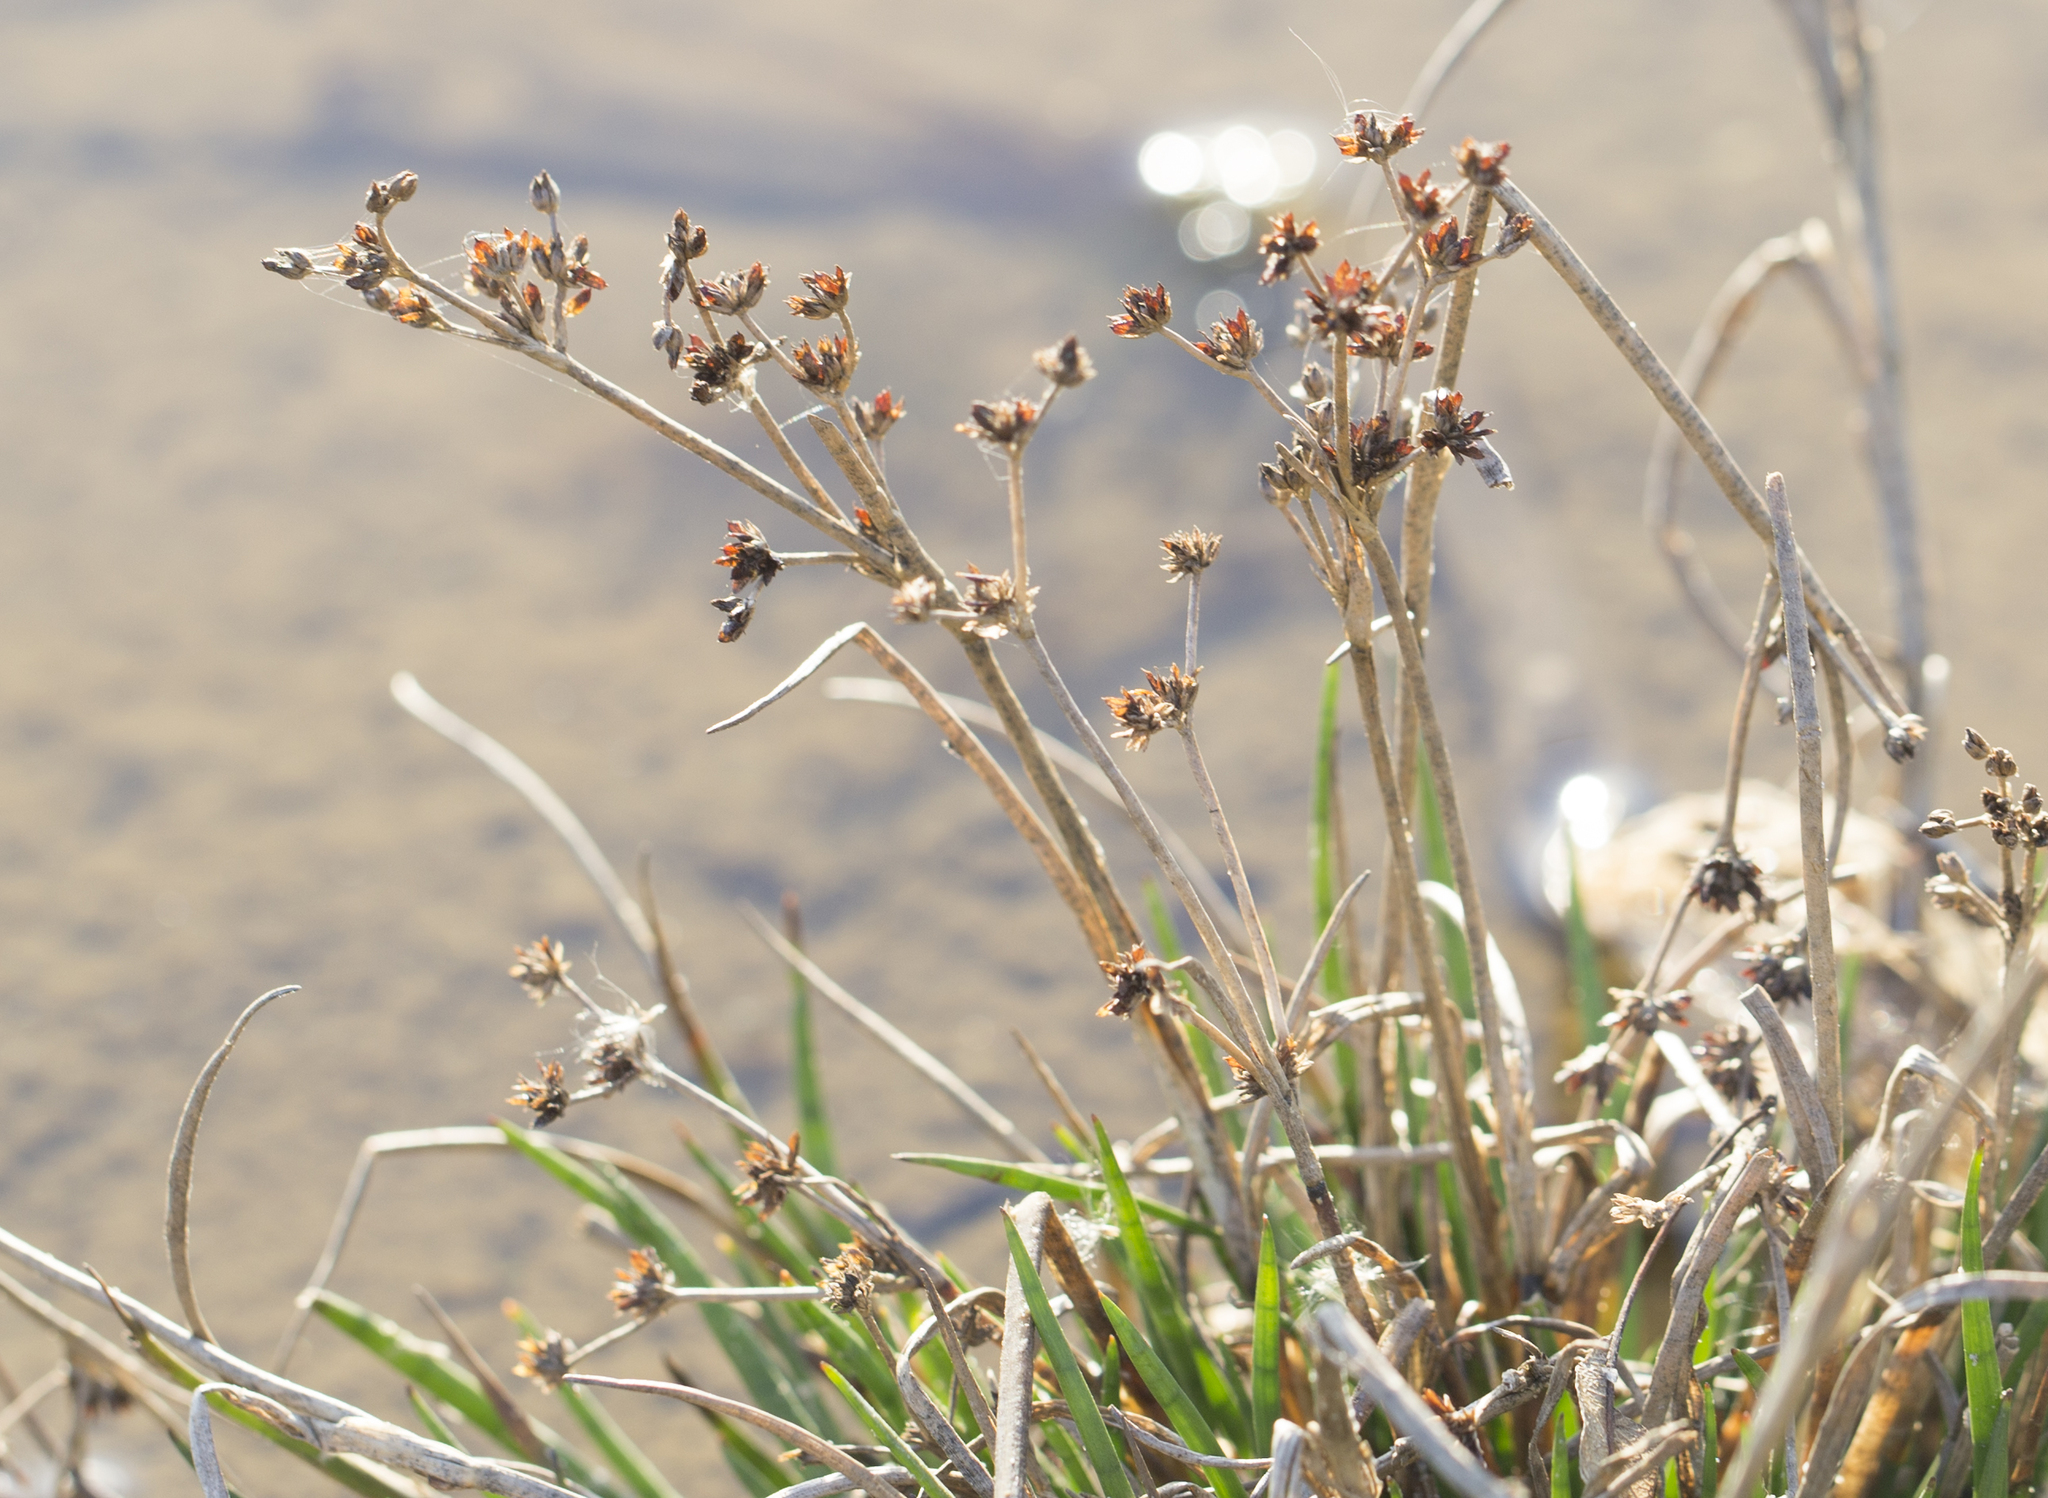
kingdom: Plantae
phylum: Tracheophyta
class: Liliopsida
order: Poales
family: Juncaceae
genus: Juncus
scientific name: Juncus articulatus
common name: Jointed rush
